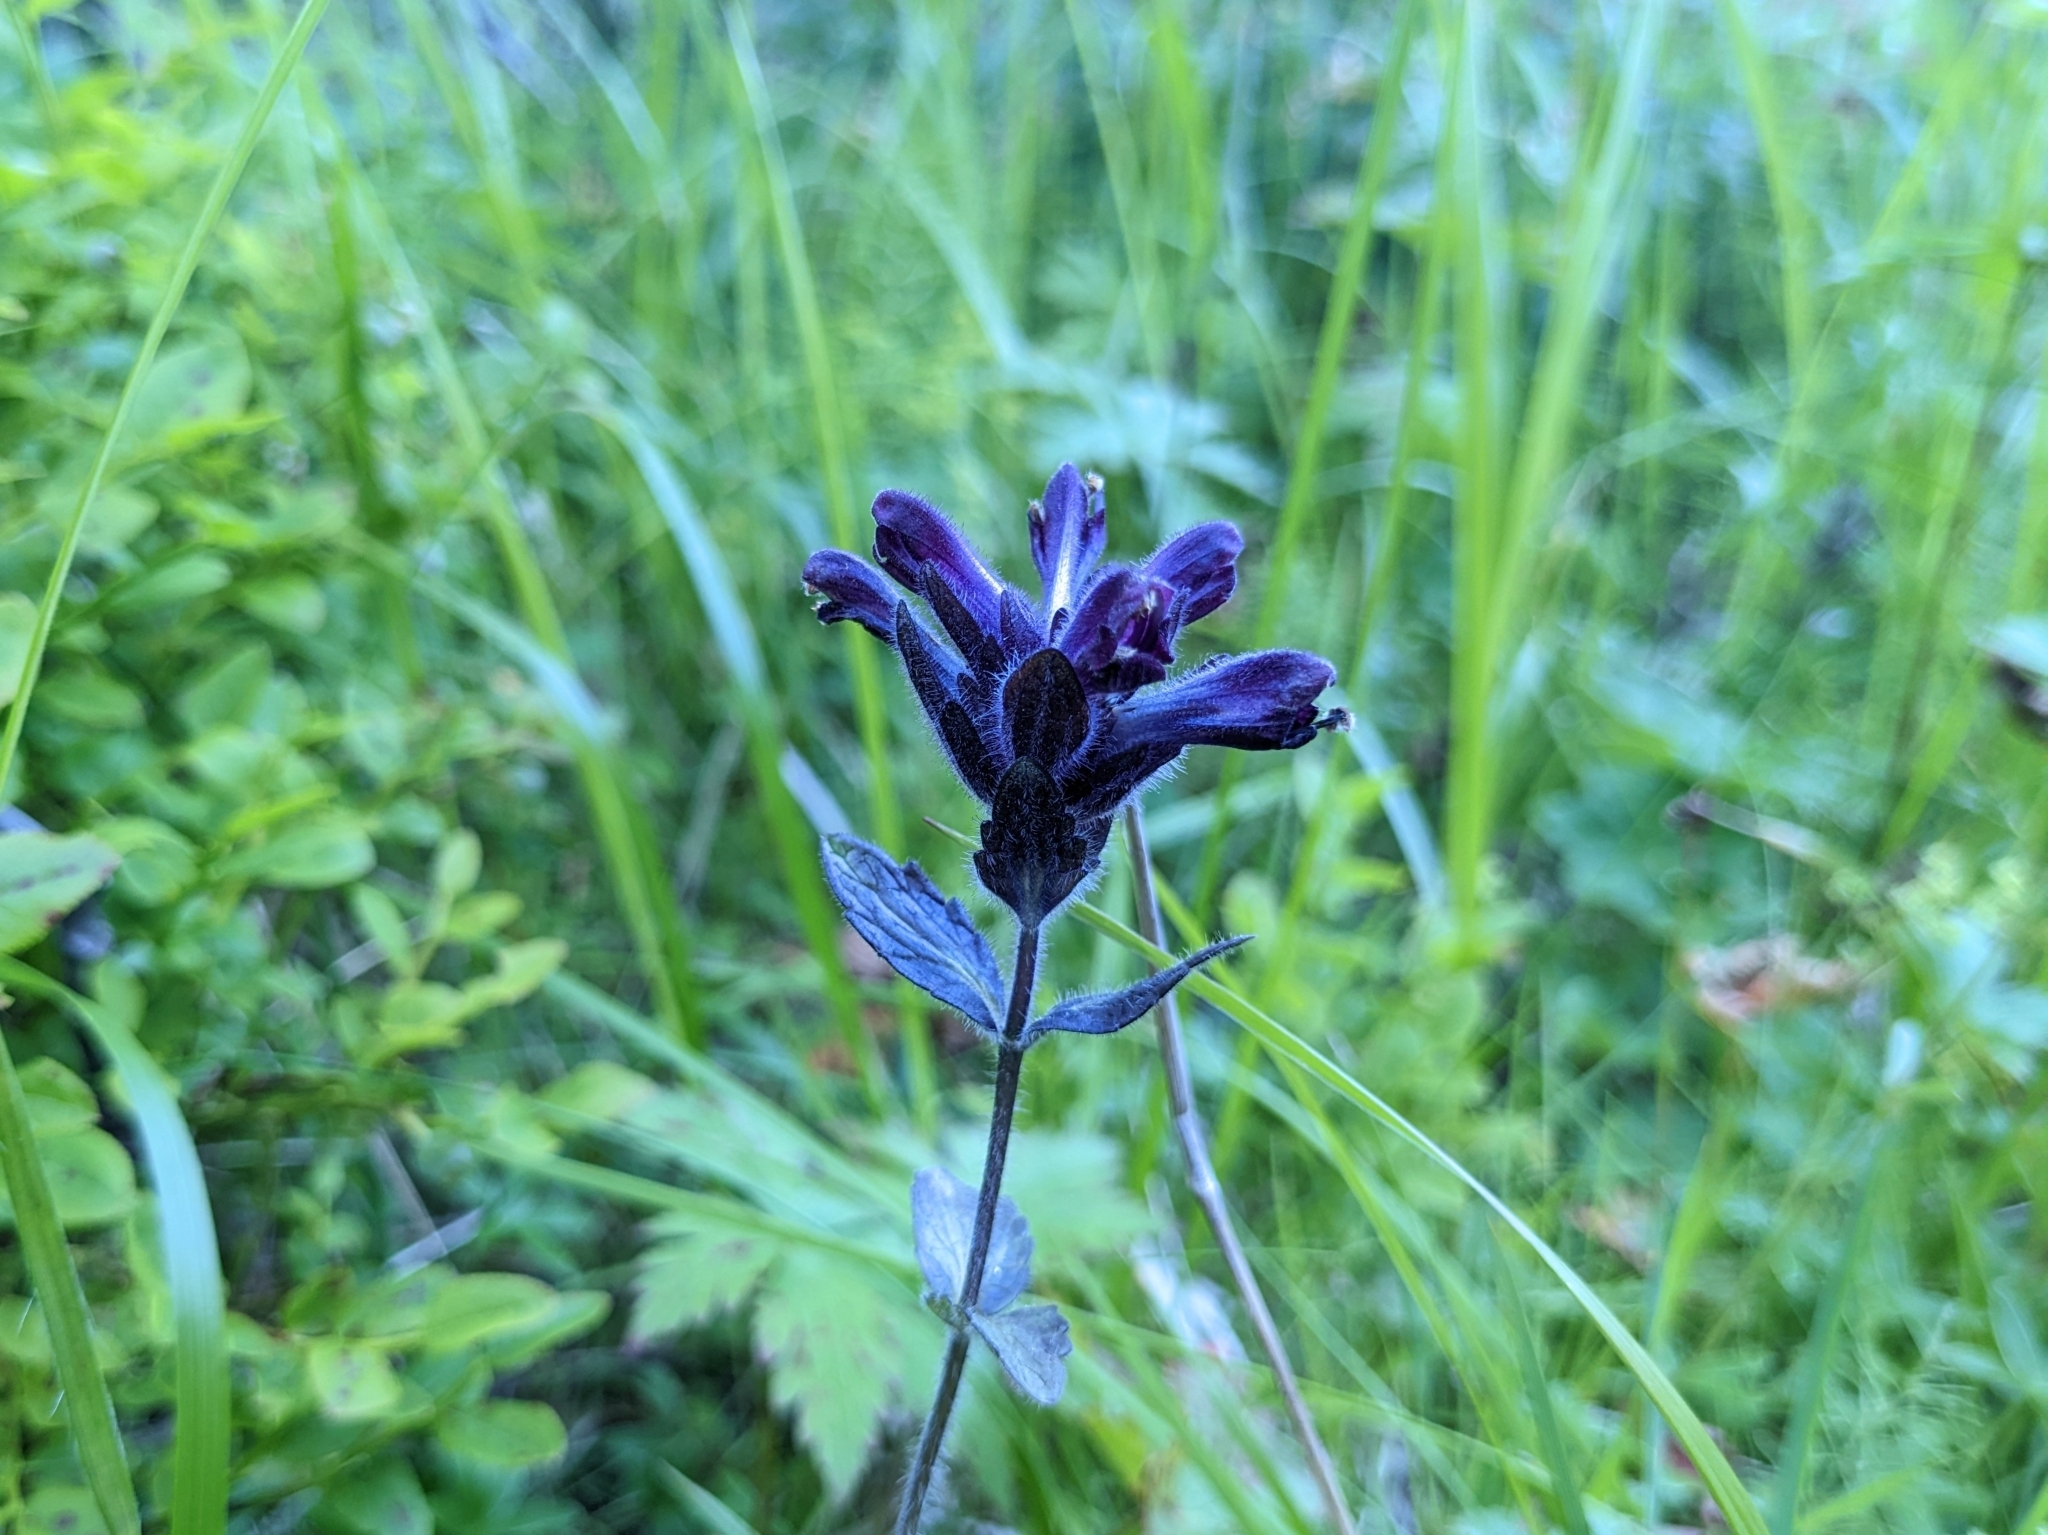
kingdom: Plantae
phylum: Tracheophyta
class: Magnoliopsida
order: Lamiales
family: Orobanchaceae
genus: Bartsia
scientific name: Bartsia alpina
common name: Alpine bartsia
